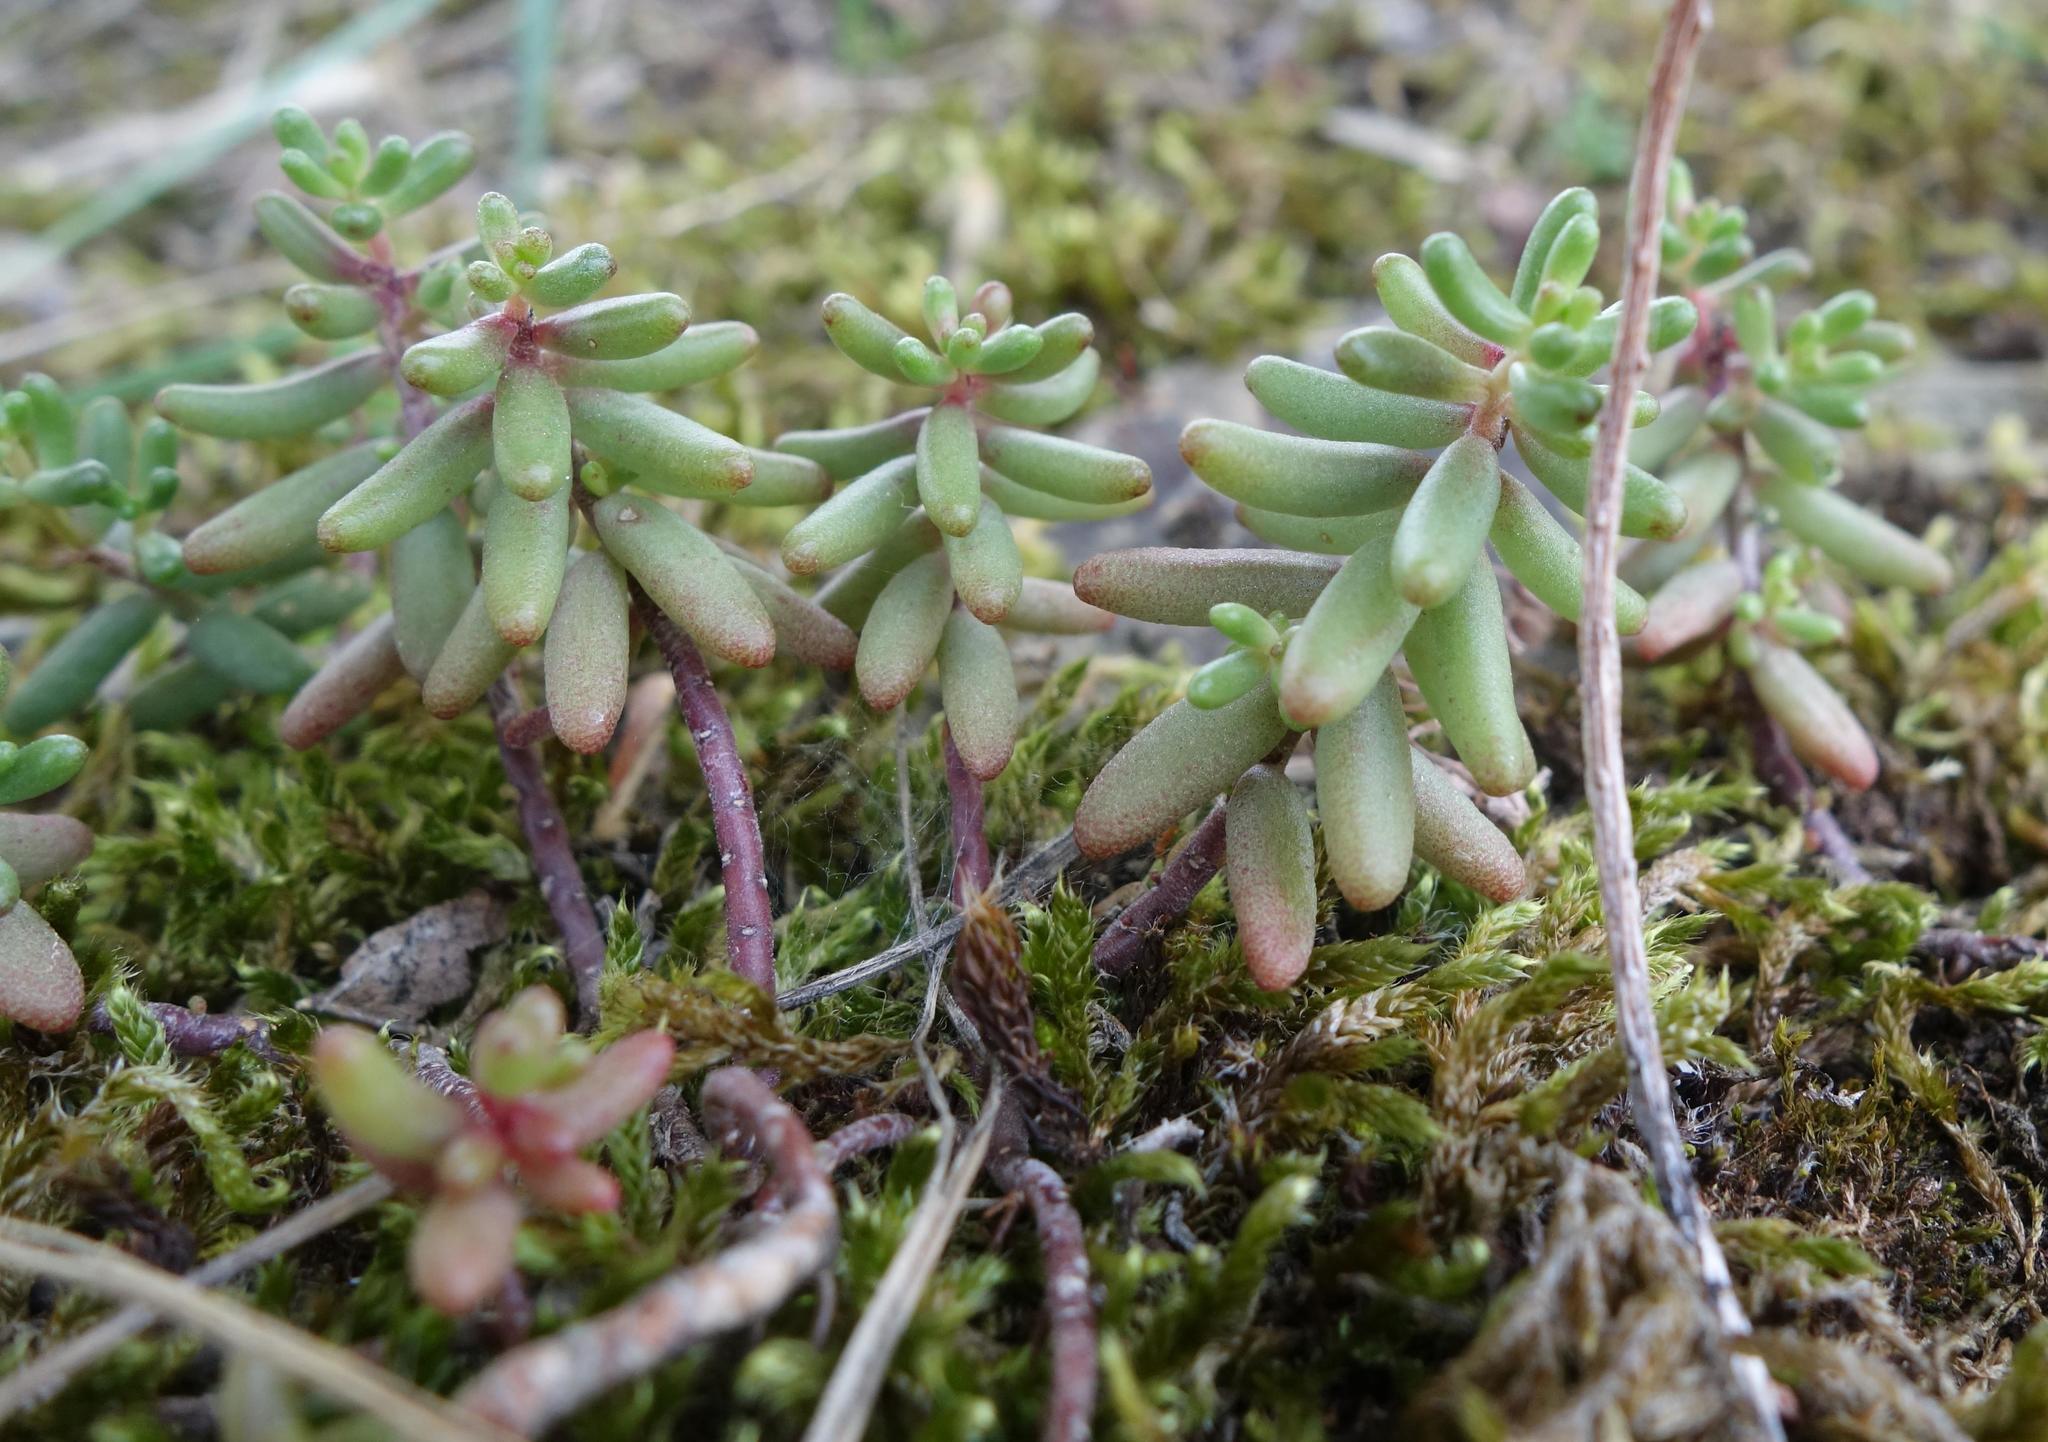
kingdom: Plantae
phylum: Tracheophyta
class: Magnoliopsida
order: Saxifragales
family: Crassulaceae
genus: Sedum
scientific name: Sedum album
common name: White stonecrop
